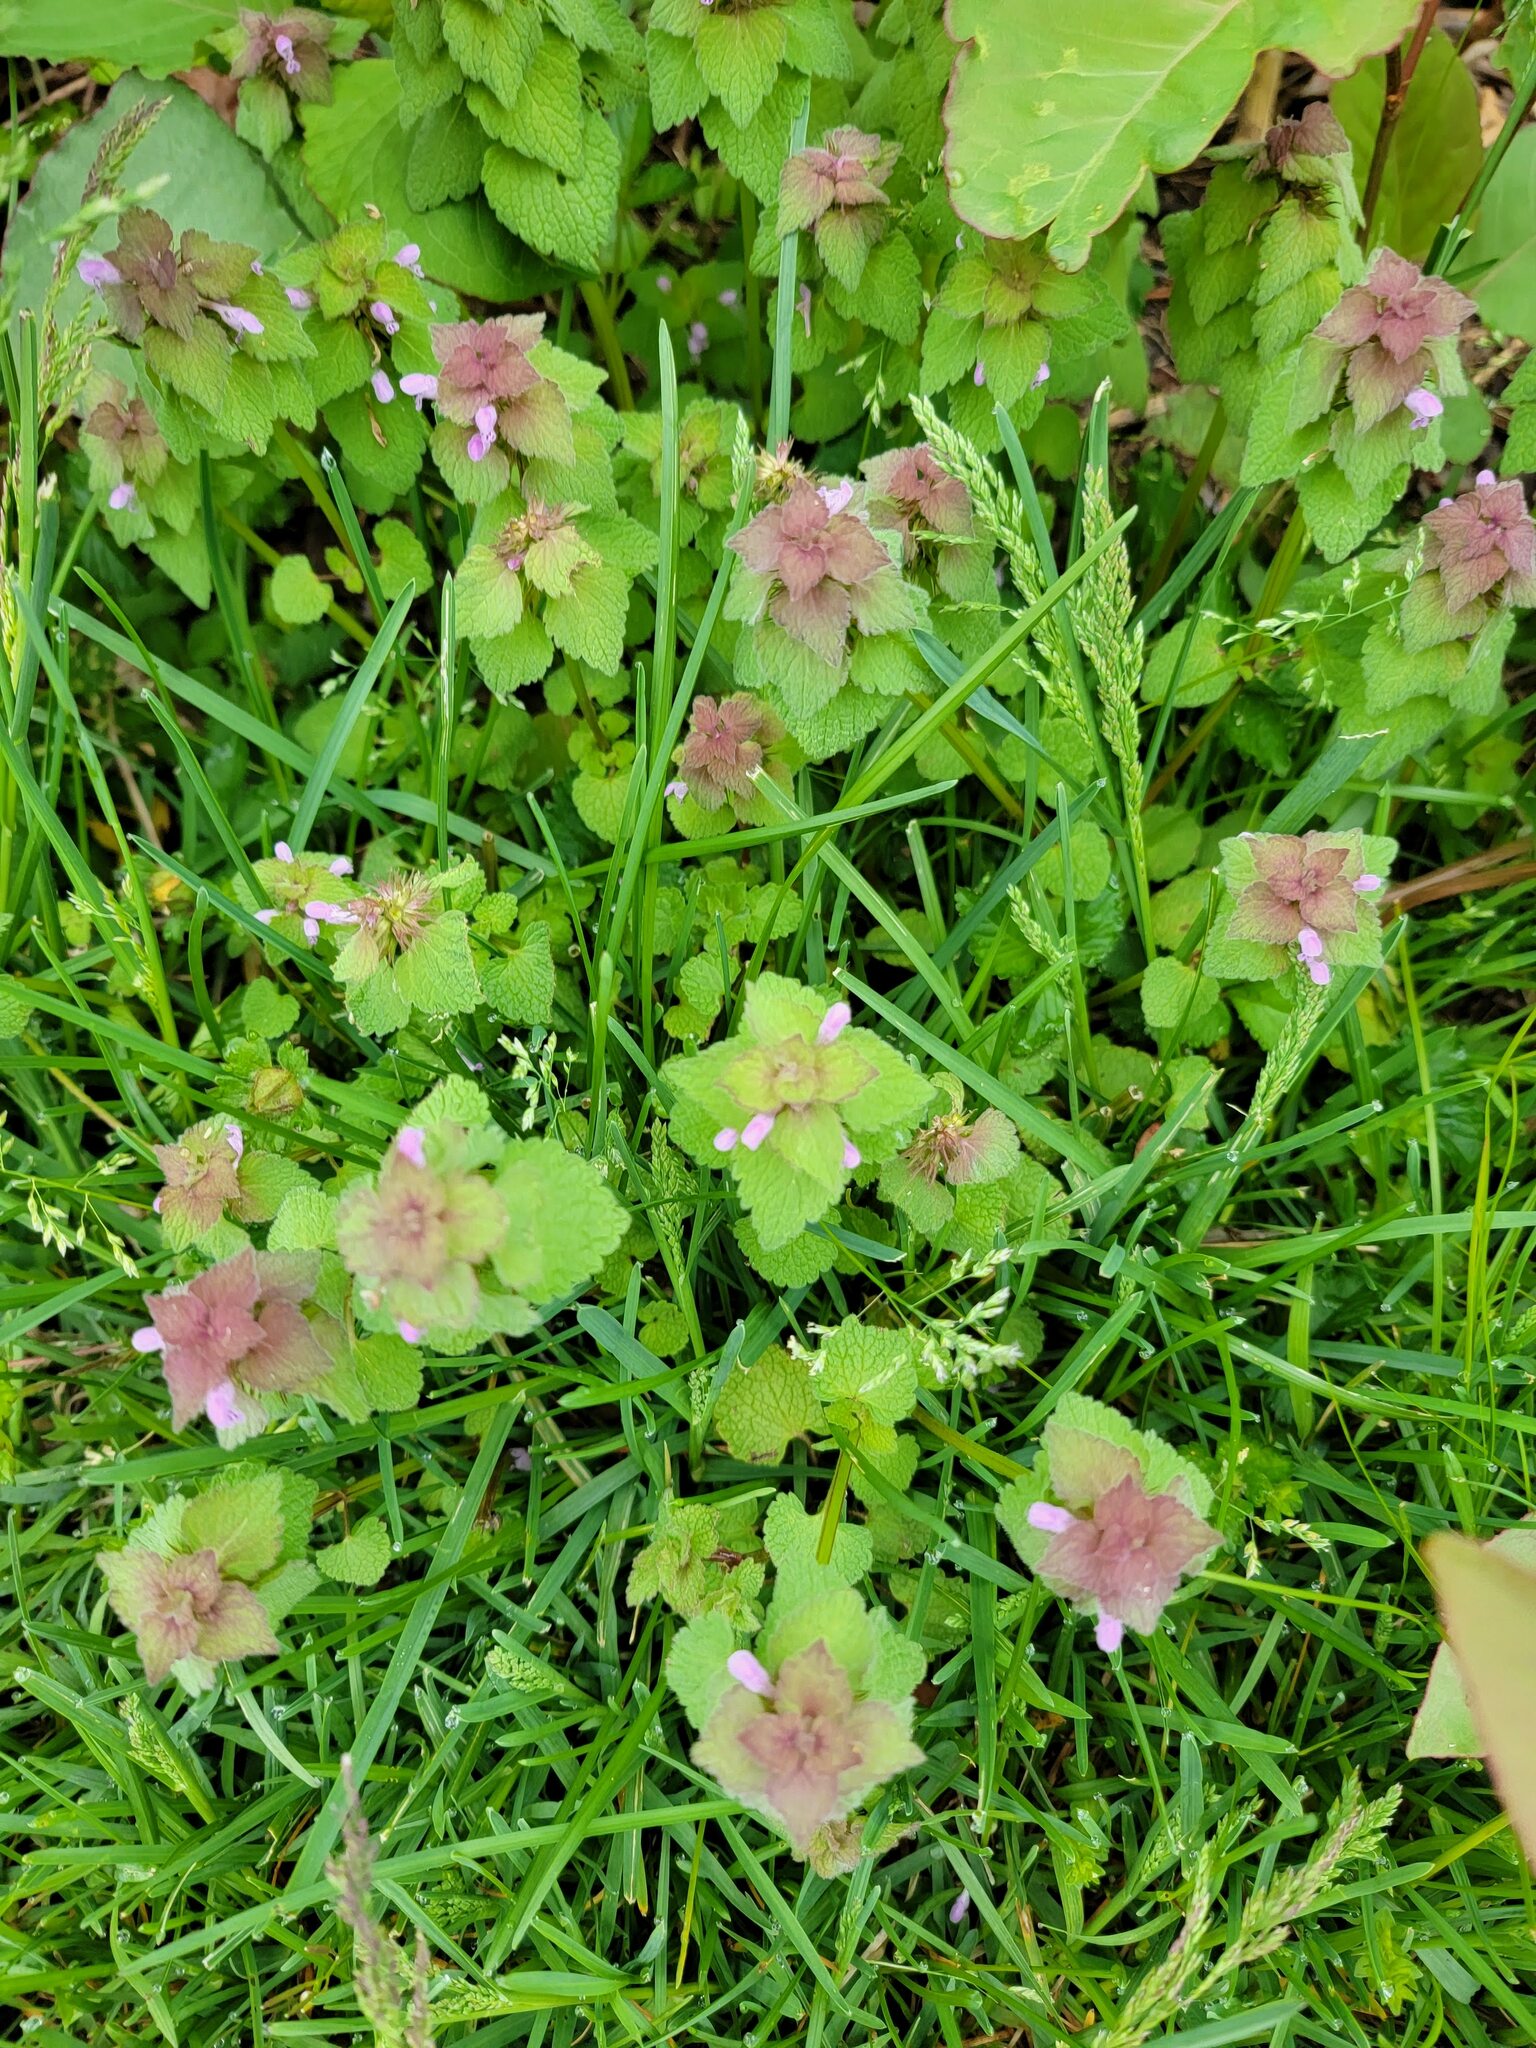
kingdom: Plantae
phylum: Tracheophyta
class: Magnoliopsida
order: Lamiales
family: Lamiaceae
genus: Lamium
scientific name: Lamium purpureum
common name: Red dead-nettle
